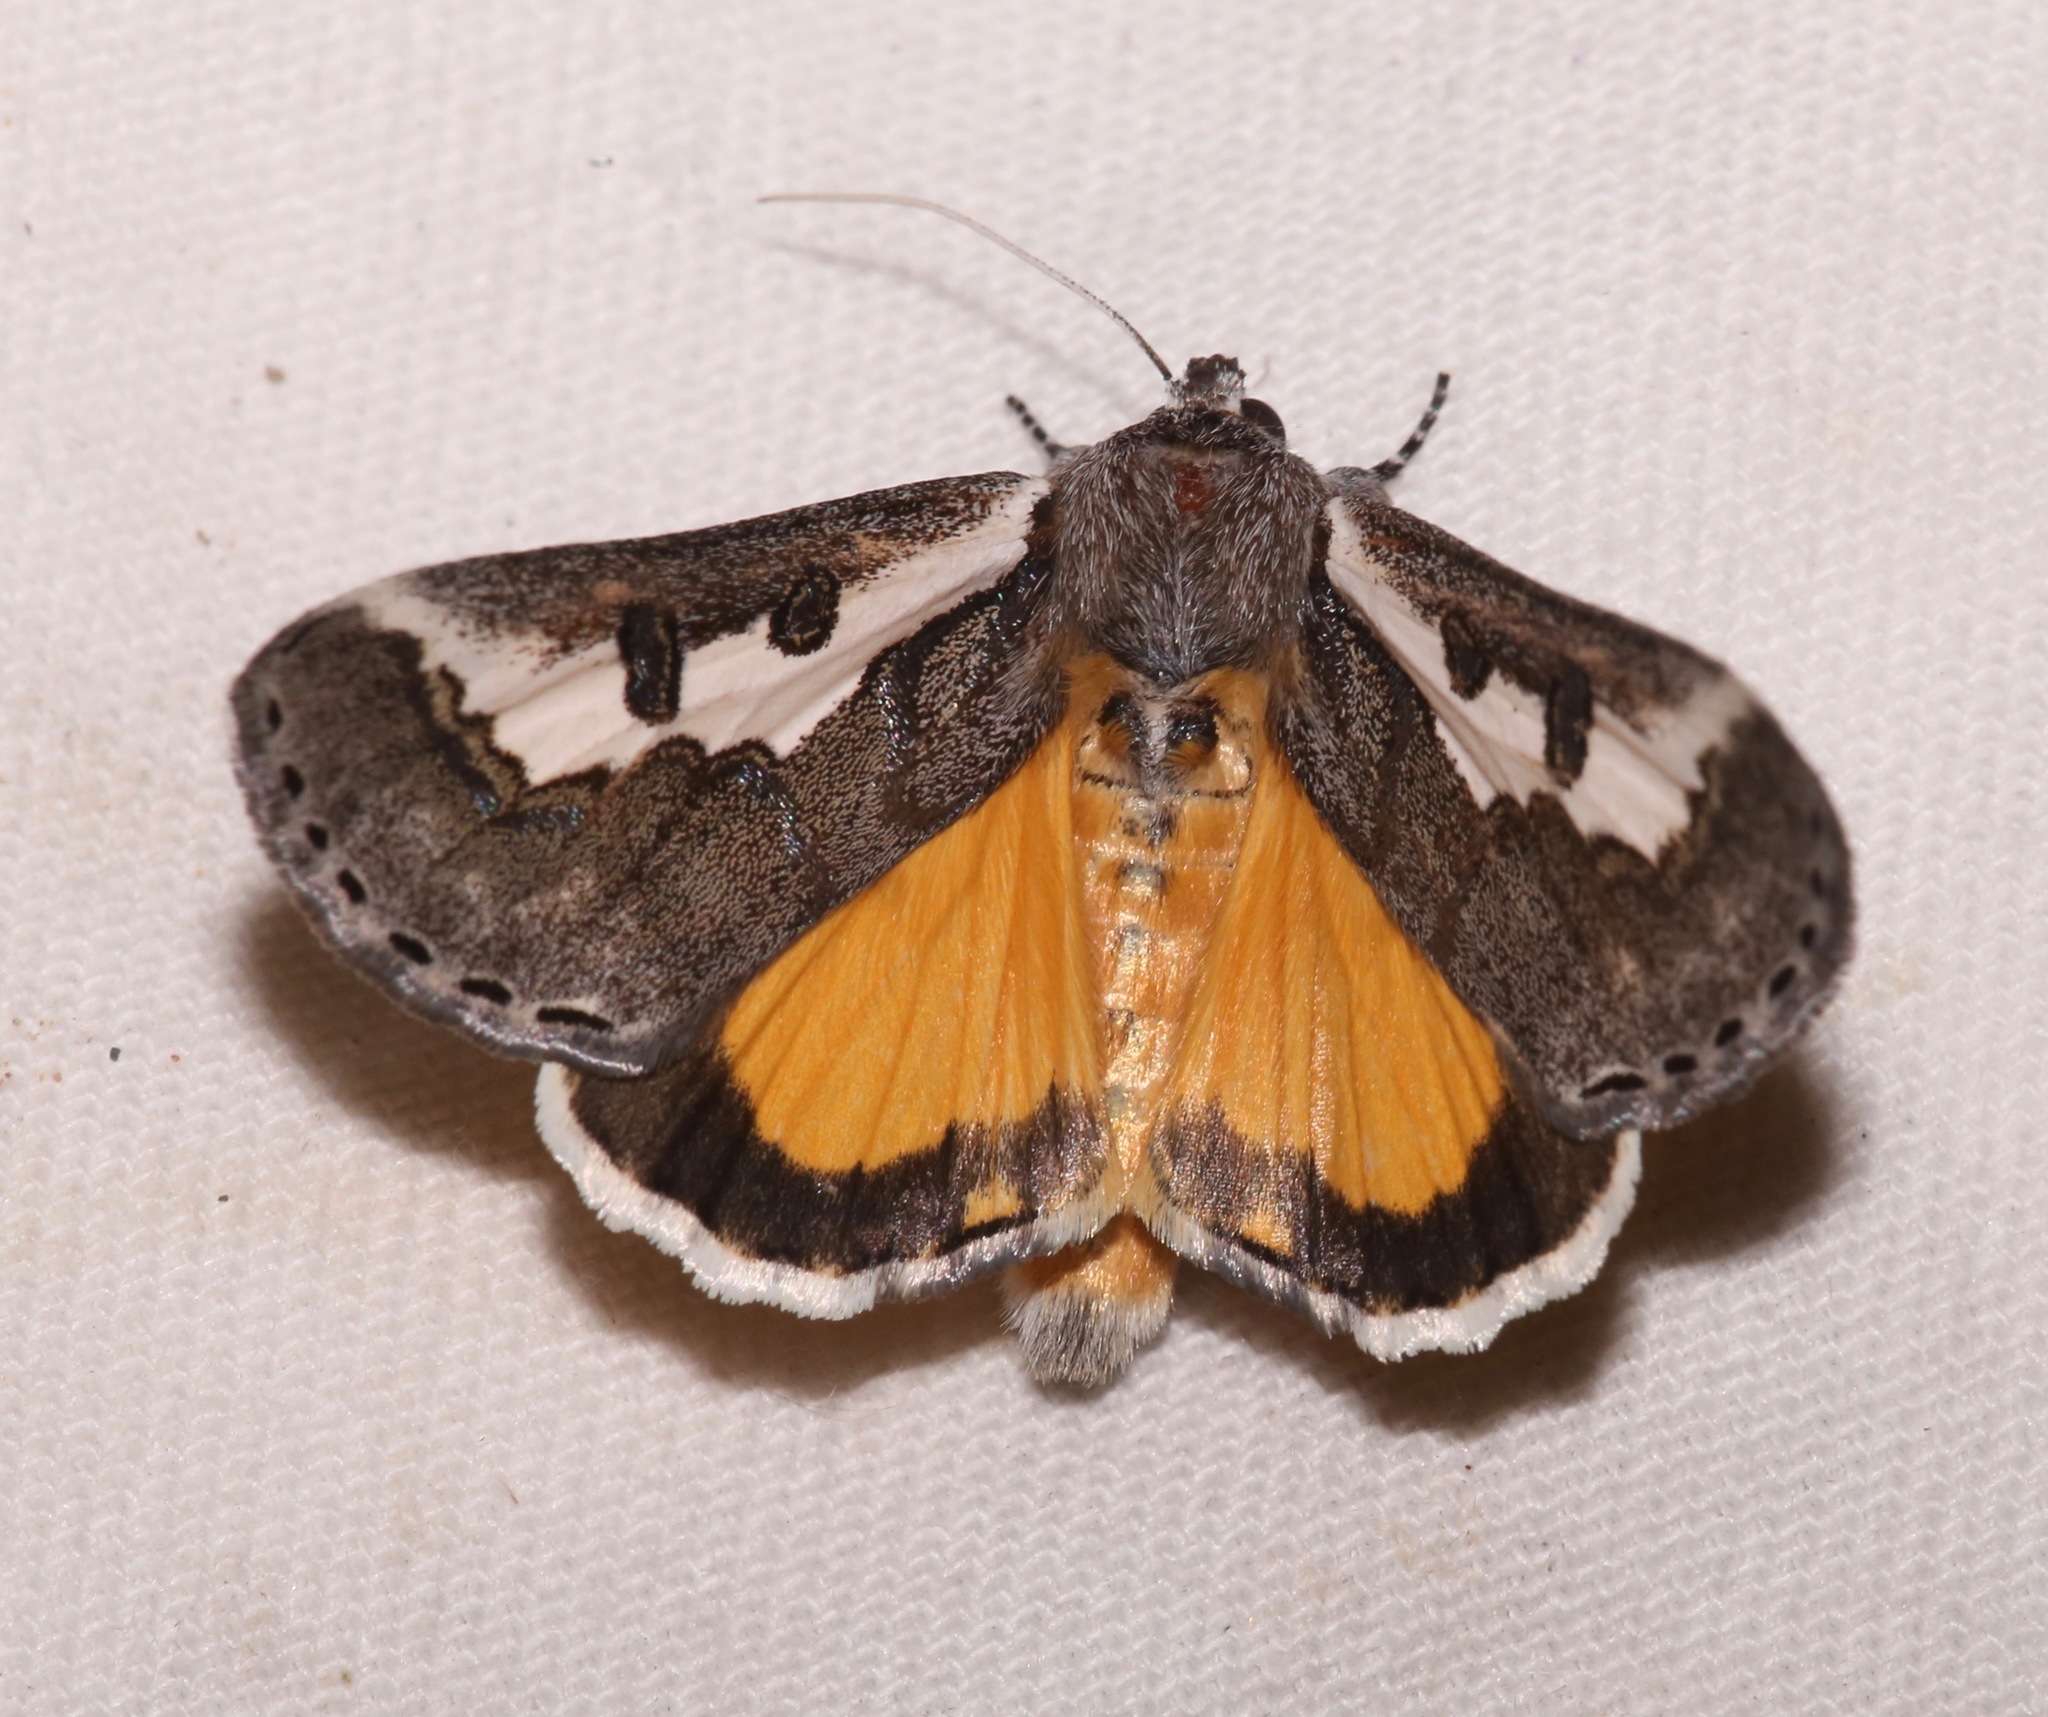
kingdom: Animalia
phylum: Arthropoda
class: Insecta
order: Lepidoptera
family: Noctuidae
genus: Euscirrhopterus
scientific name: Euscirrhopterus gloveri
